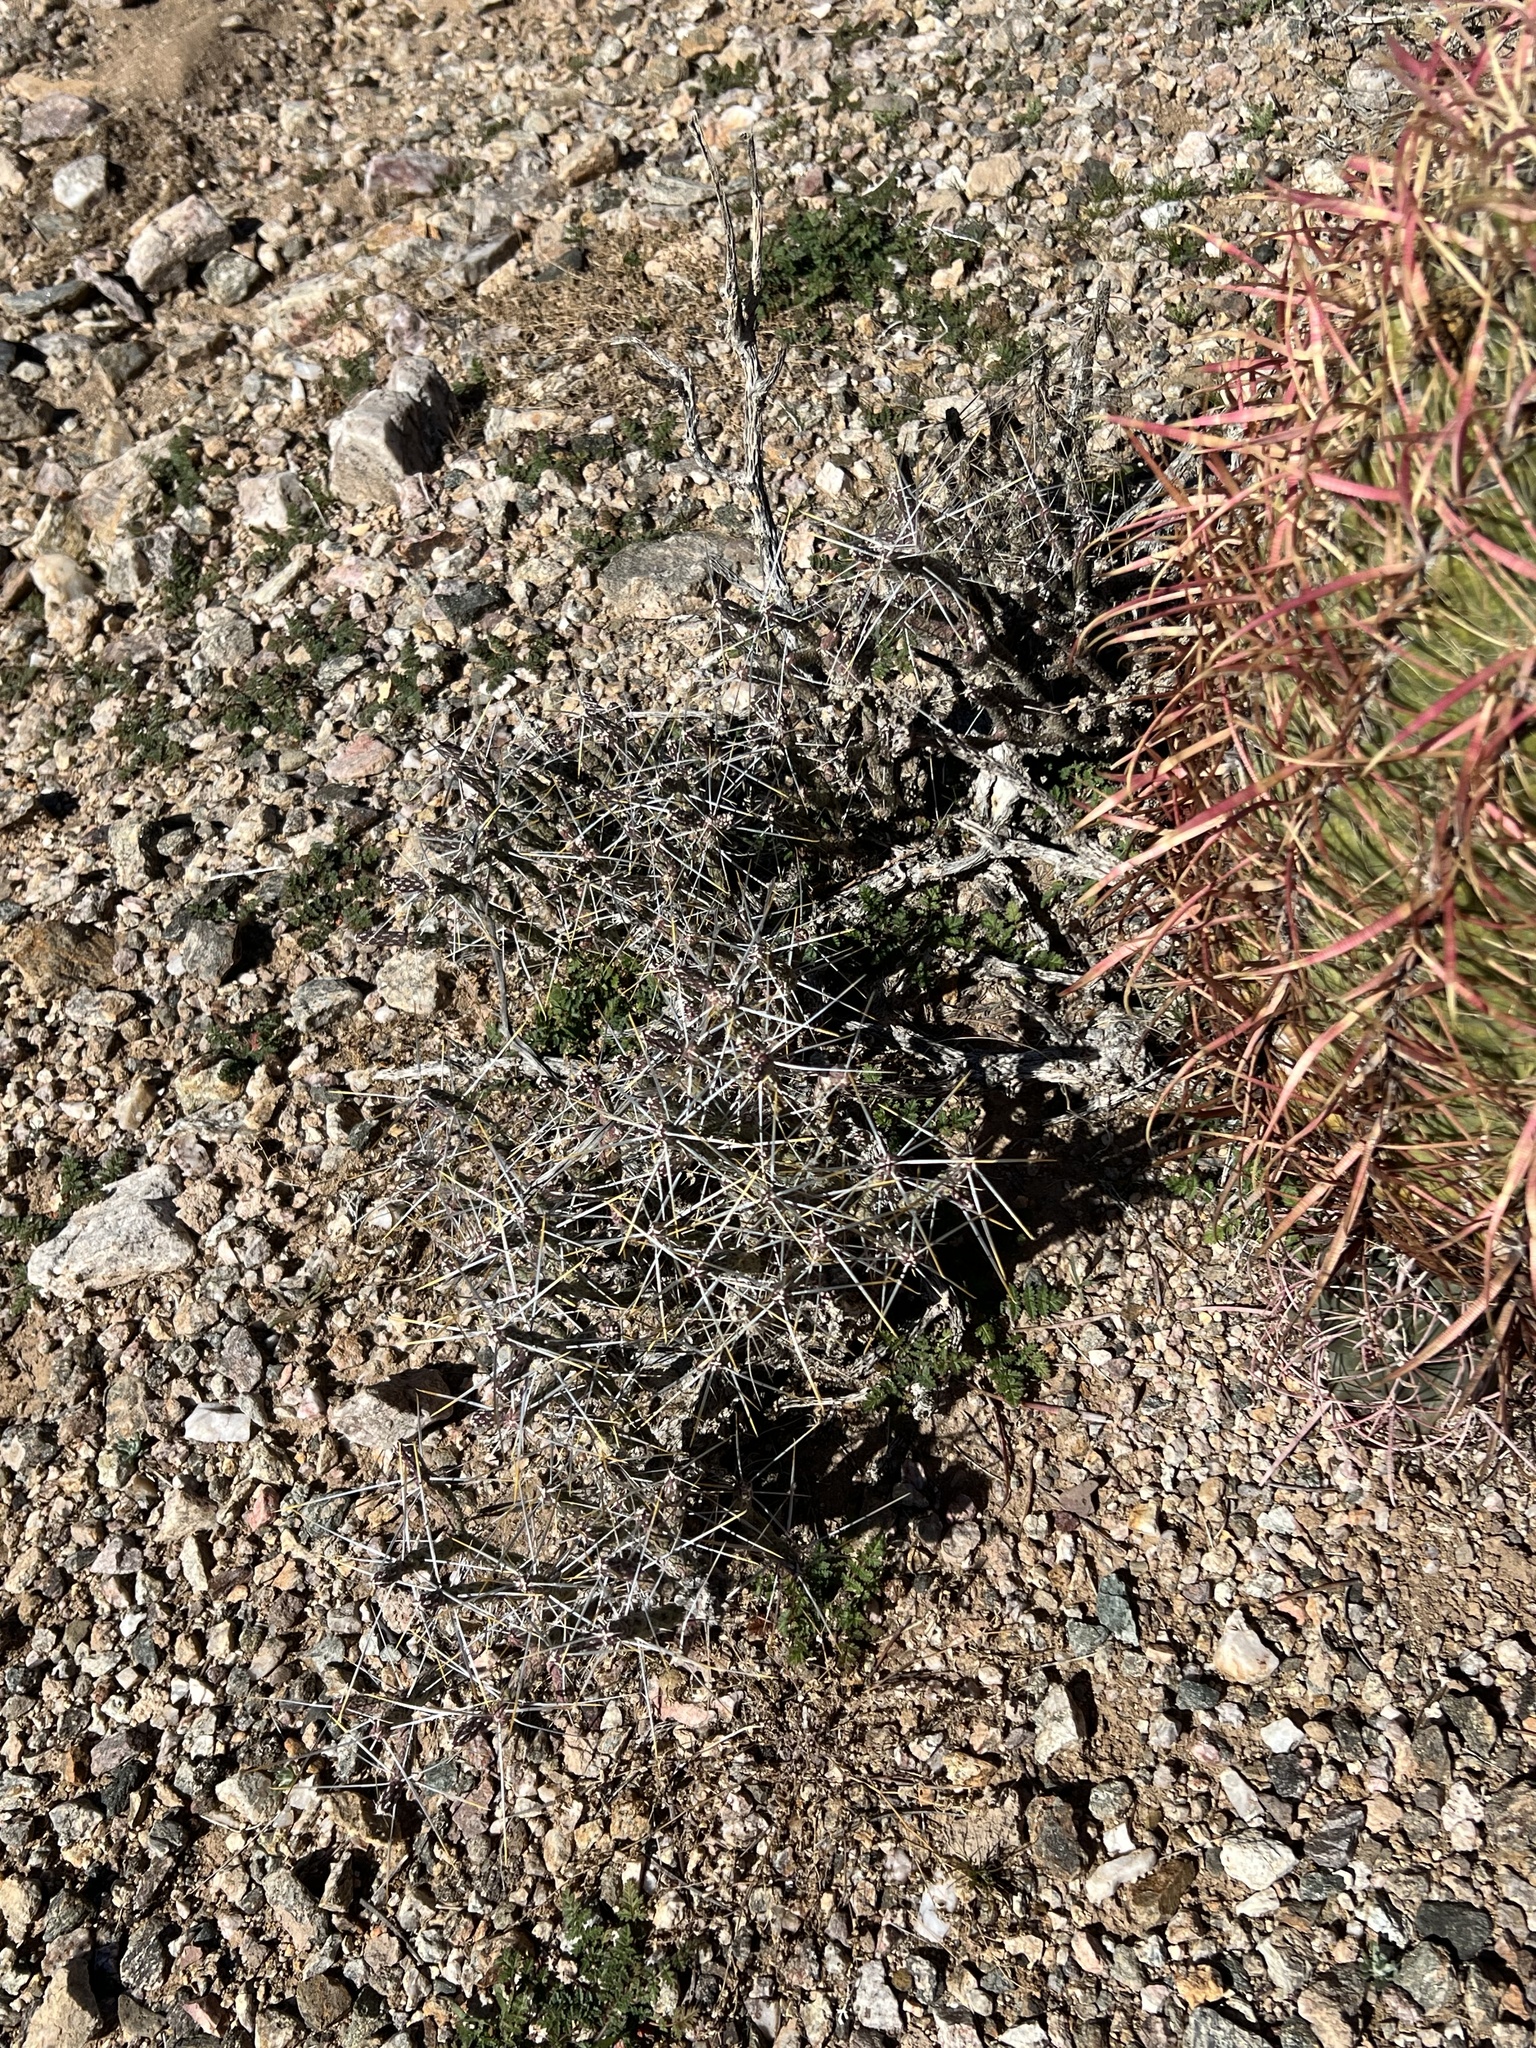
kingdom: Plantae
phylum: Tracheophyta
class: Magnoliopsida
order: Caryophyllales
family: Cactaceae
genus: Cylindropuntia
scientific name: Cylindropuntia ramosissima
